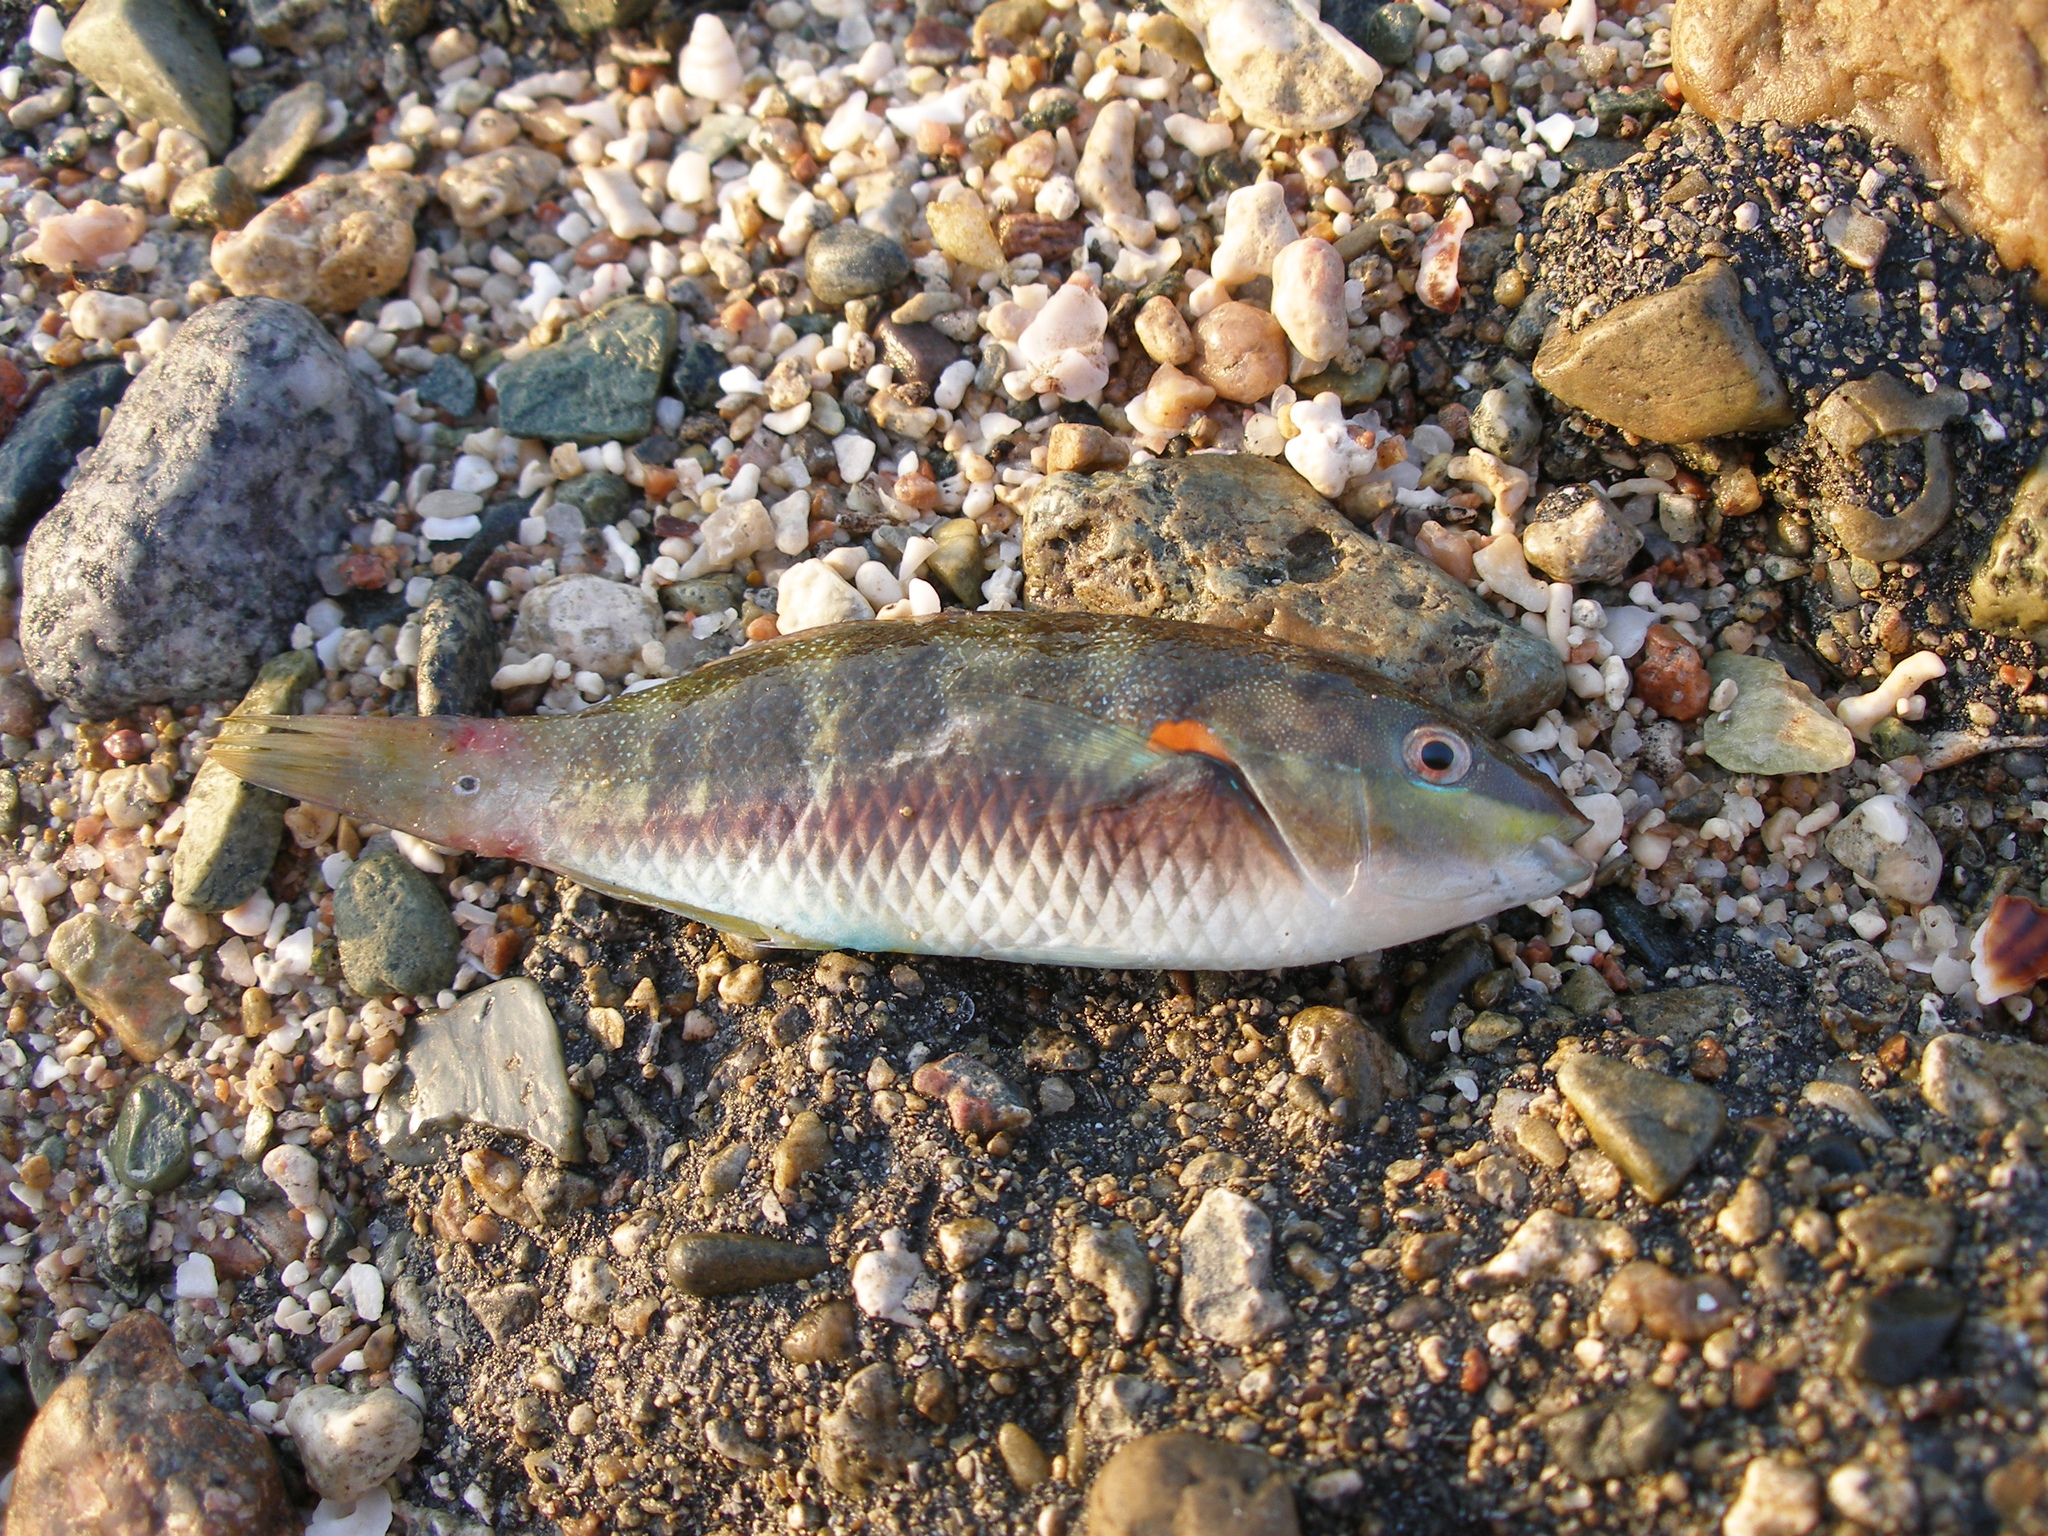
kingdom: Animalia
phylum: Chordata
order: Perciformes
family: Labridae
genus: Stethojulis
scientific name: Stethojulis albovittata
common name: Bluelined wrasse
